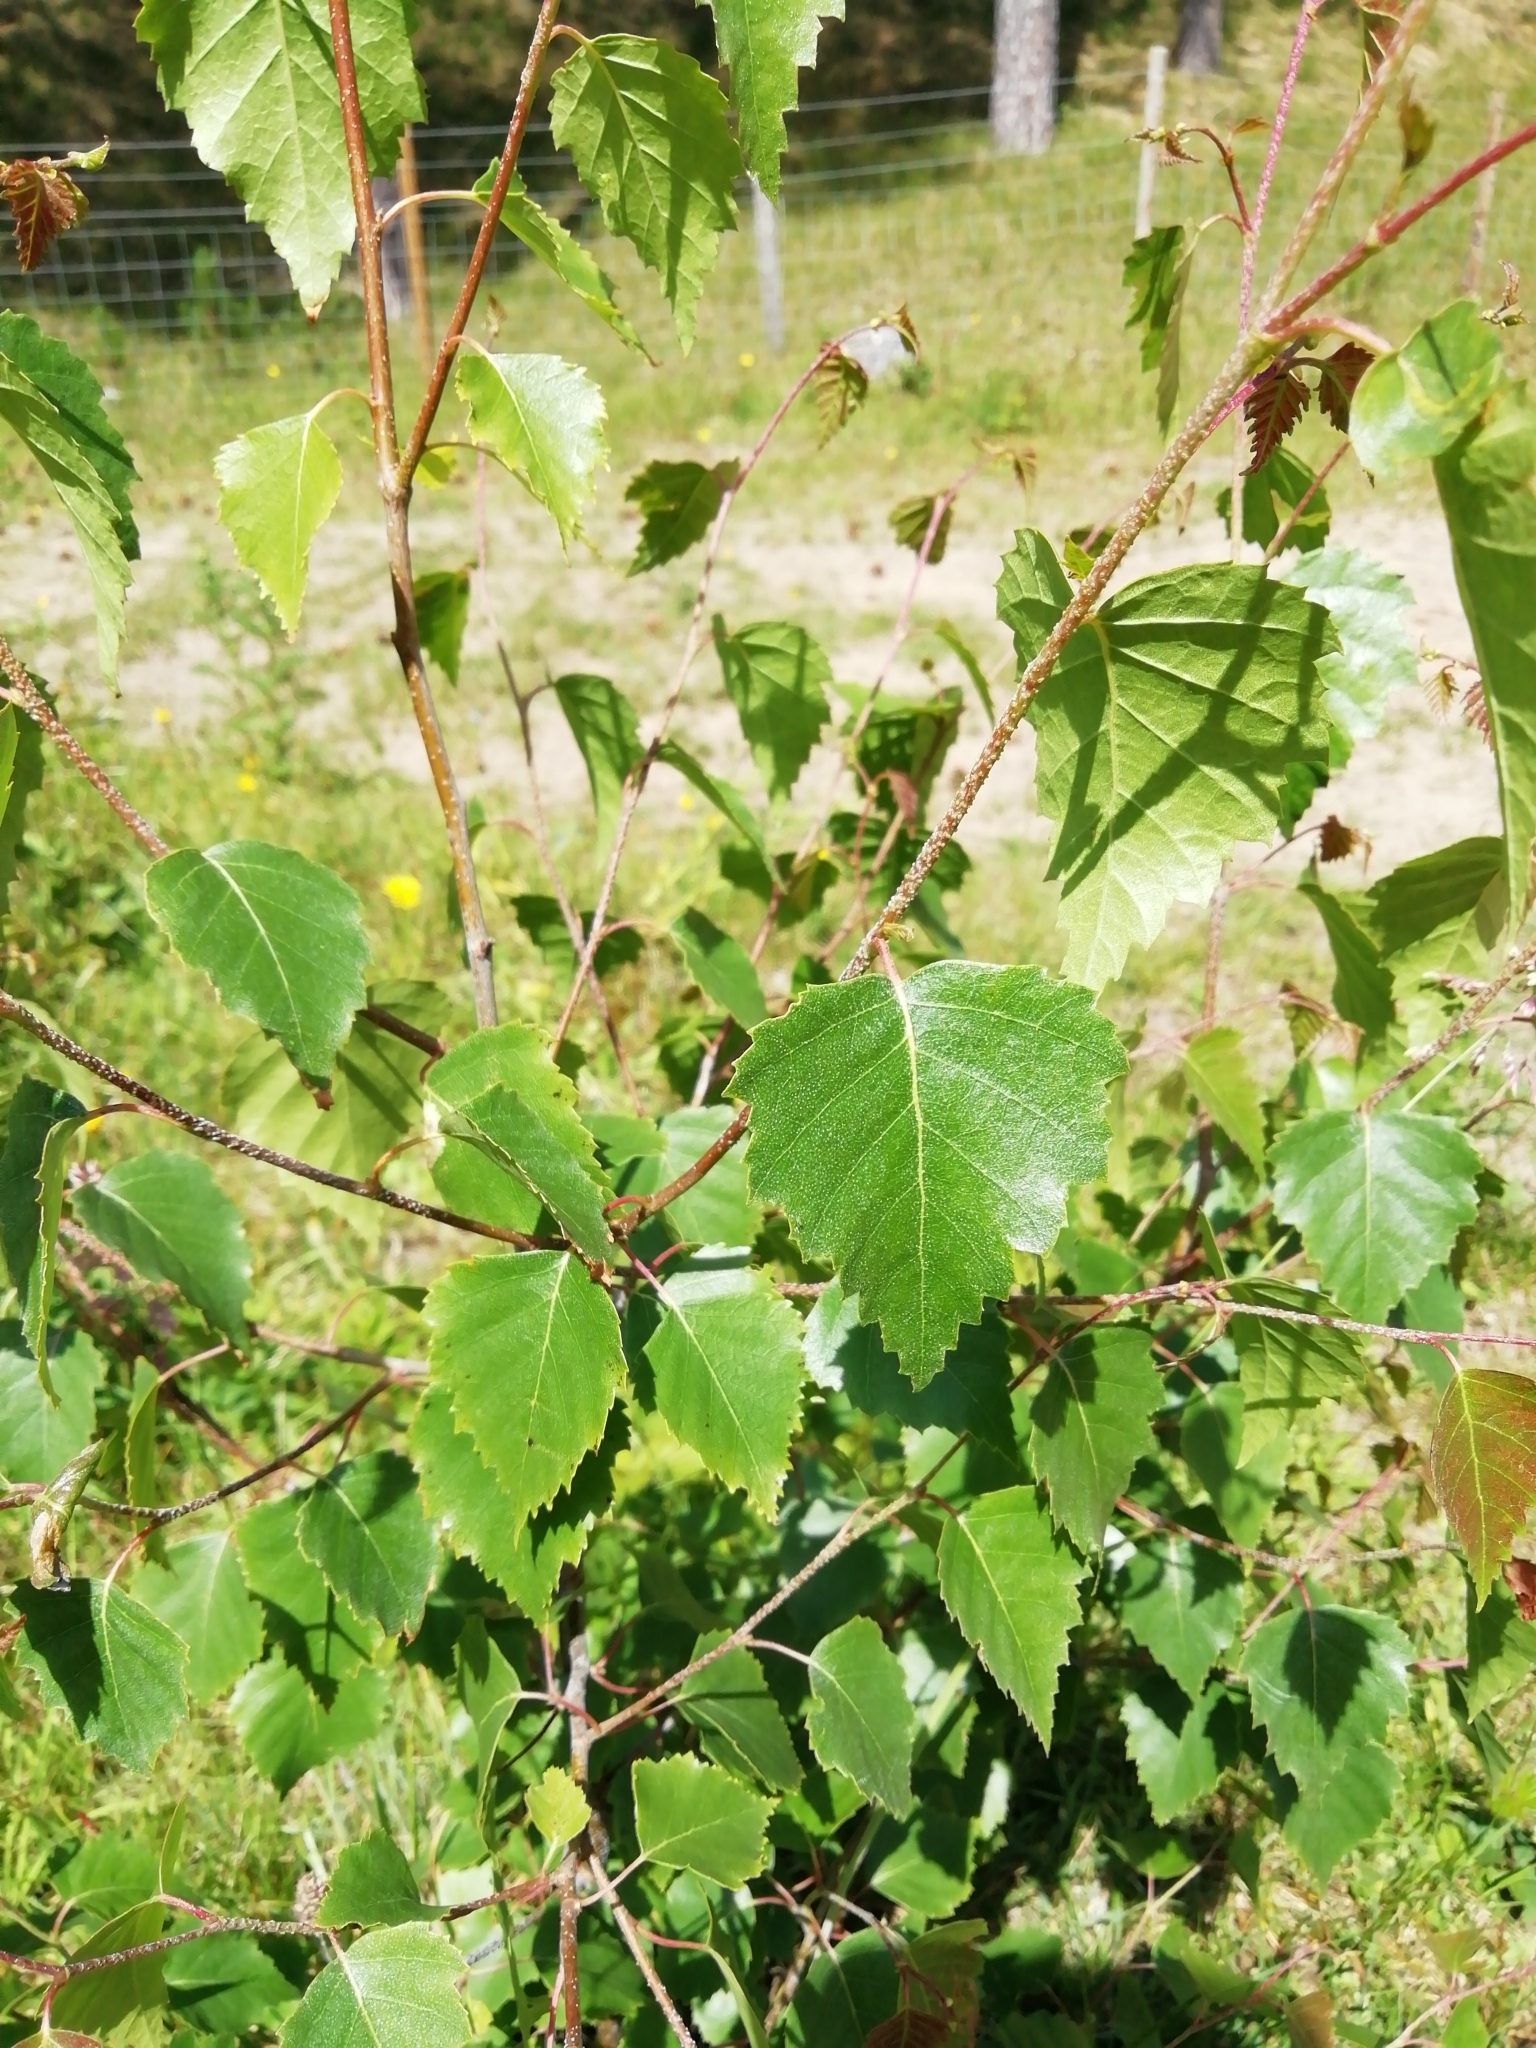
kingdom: Plantae
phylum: Tracheophyta
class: Magnoliopsida
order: Fagales
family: Betulaceae
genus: Betula
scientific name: Betula pendula
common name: Silver birch
